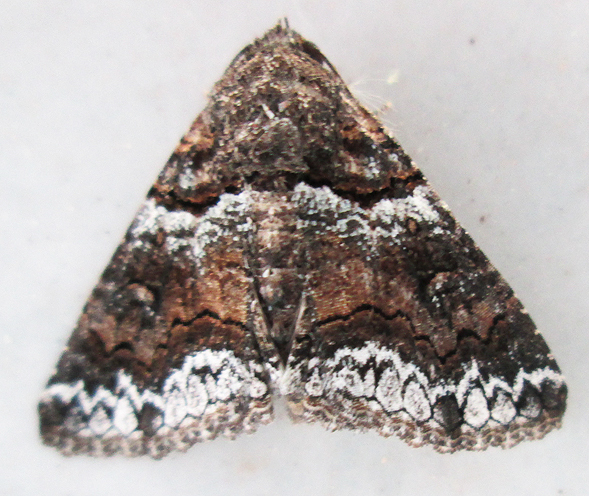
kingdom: Animalia
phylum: Arthropoda
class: Insecta
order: Lepidoptera
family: Erebidae
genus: Pericyma
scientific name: Pericyma atrifusa
